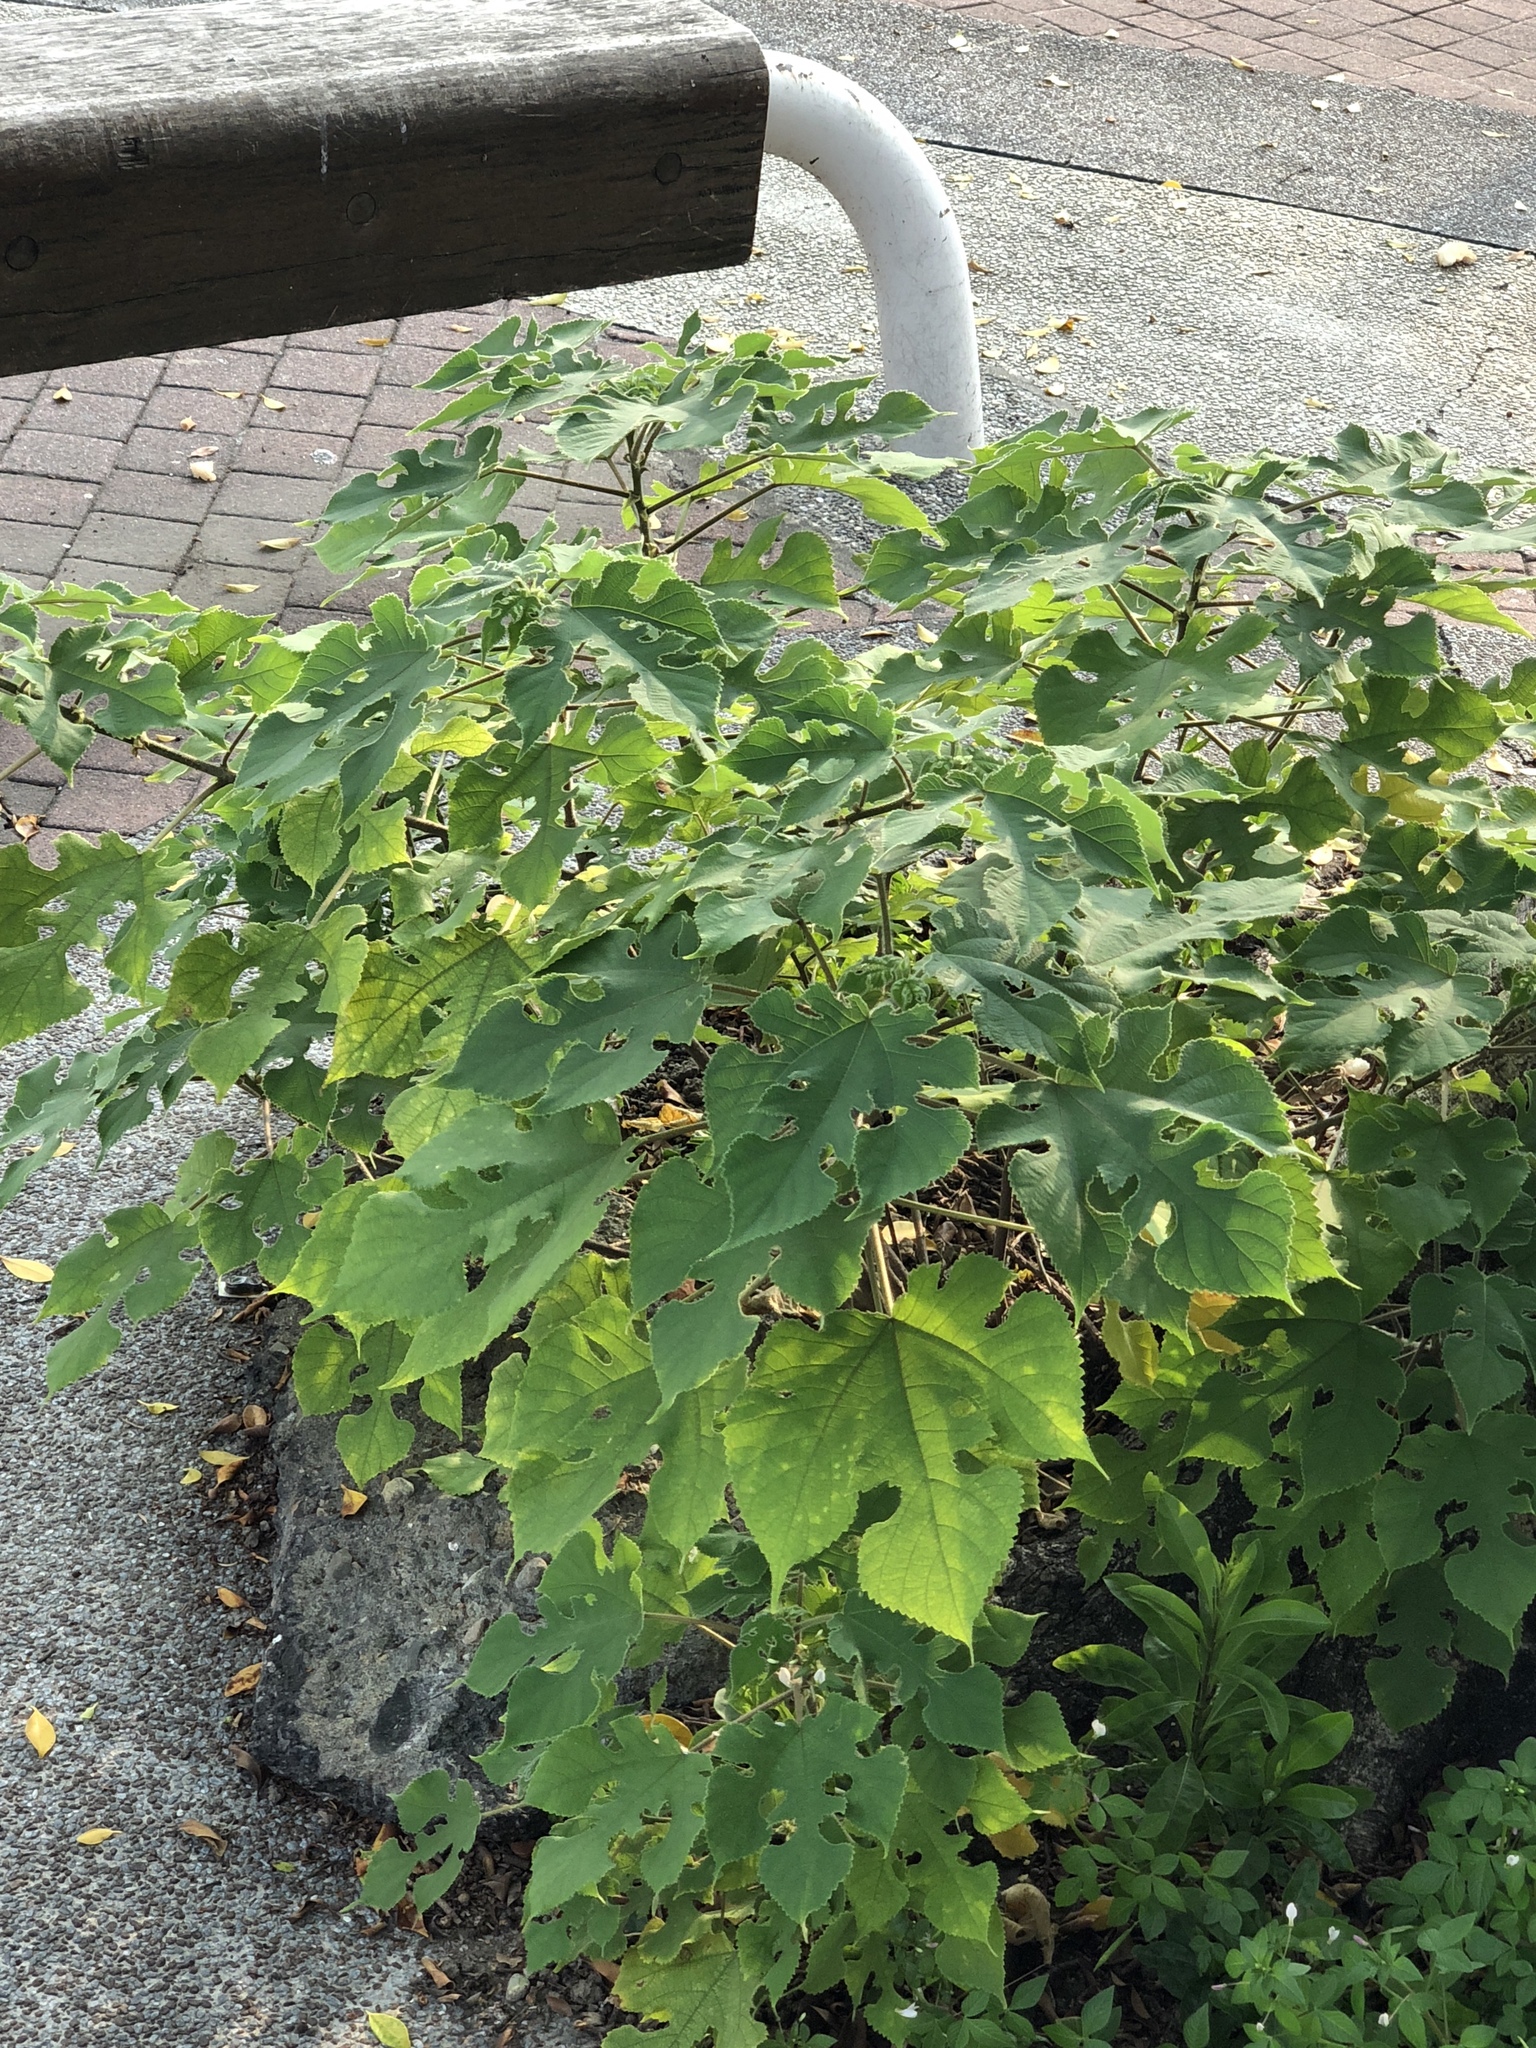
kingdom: Plantae
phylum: Tracheophyta
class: Magnoliopsida
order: Rosales
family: Moraceae
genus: Broussonetia
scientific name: Broussonetia papyrifera
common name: Paper mulberry
